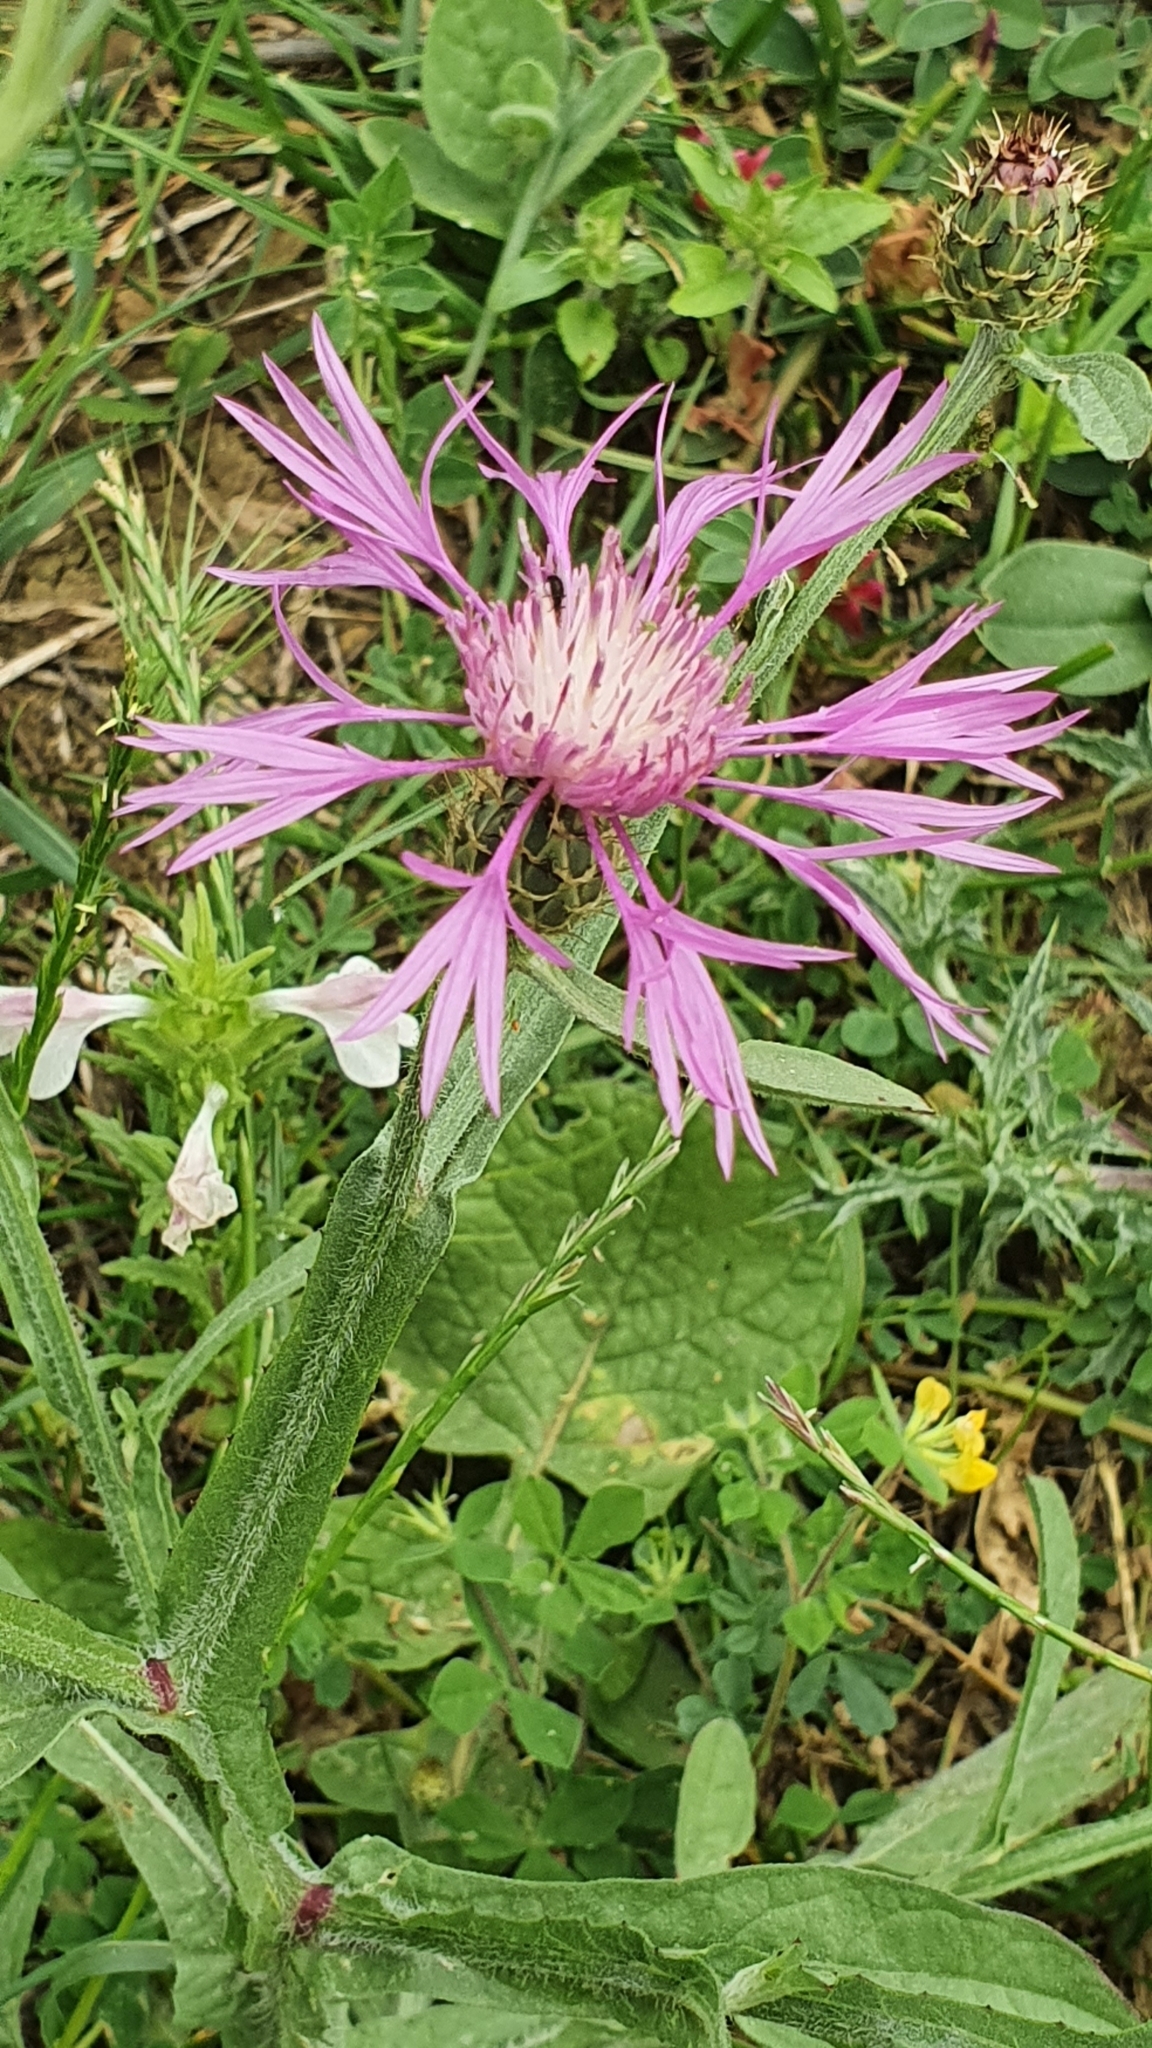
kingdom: Plantae
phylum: Tracheophyta
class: Magnoliopsida
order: Asterales
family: Asteraceae
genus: Centaurea
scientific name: Centaurea napifolia
